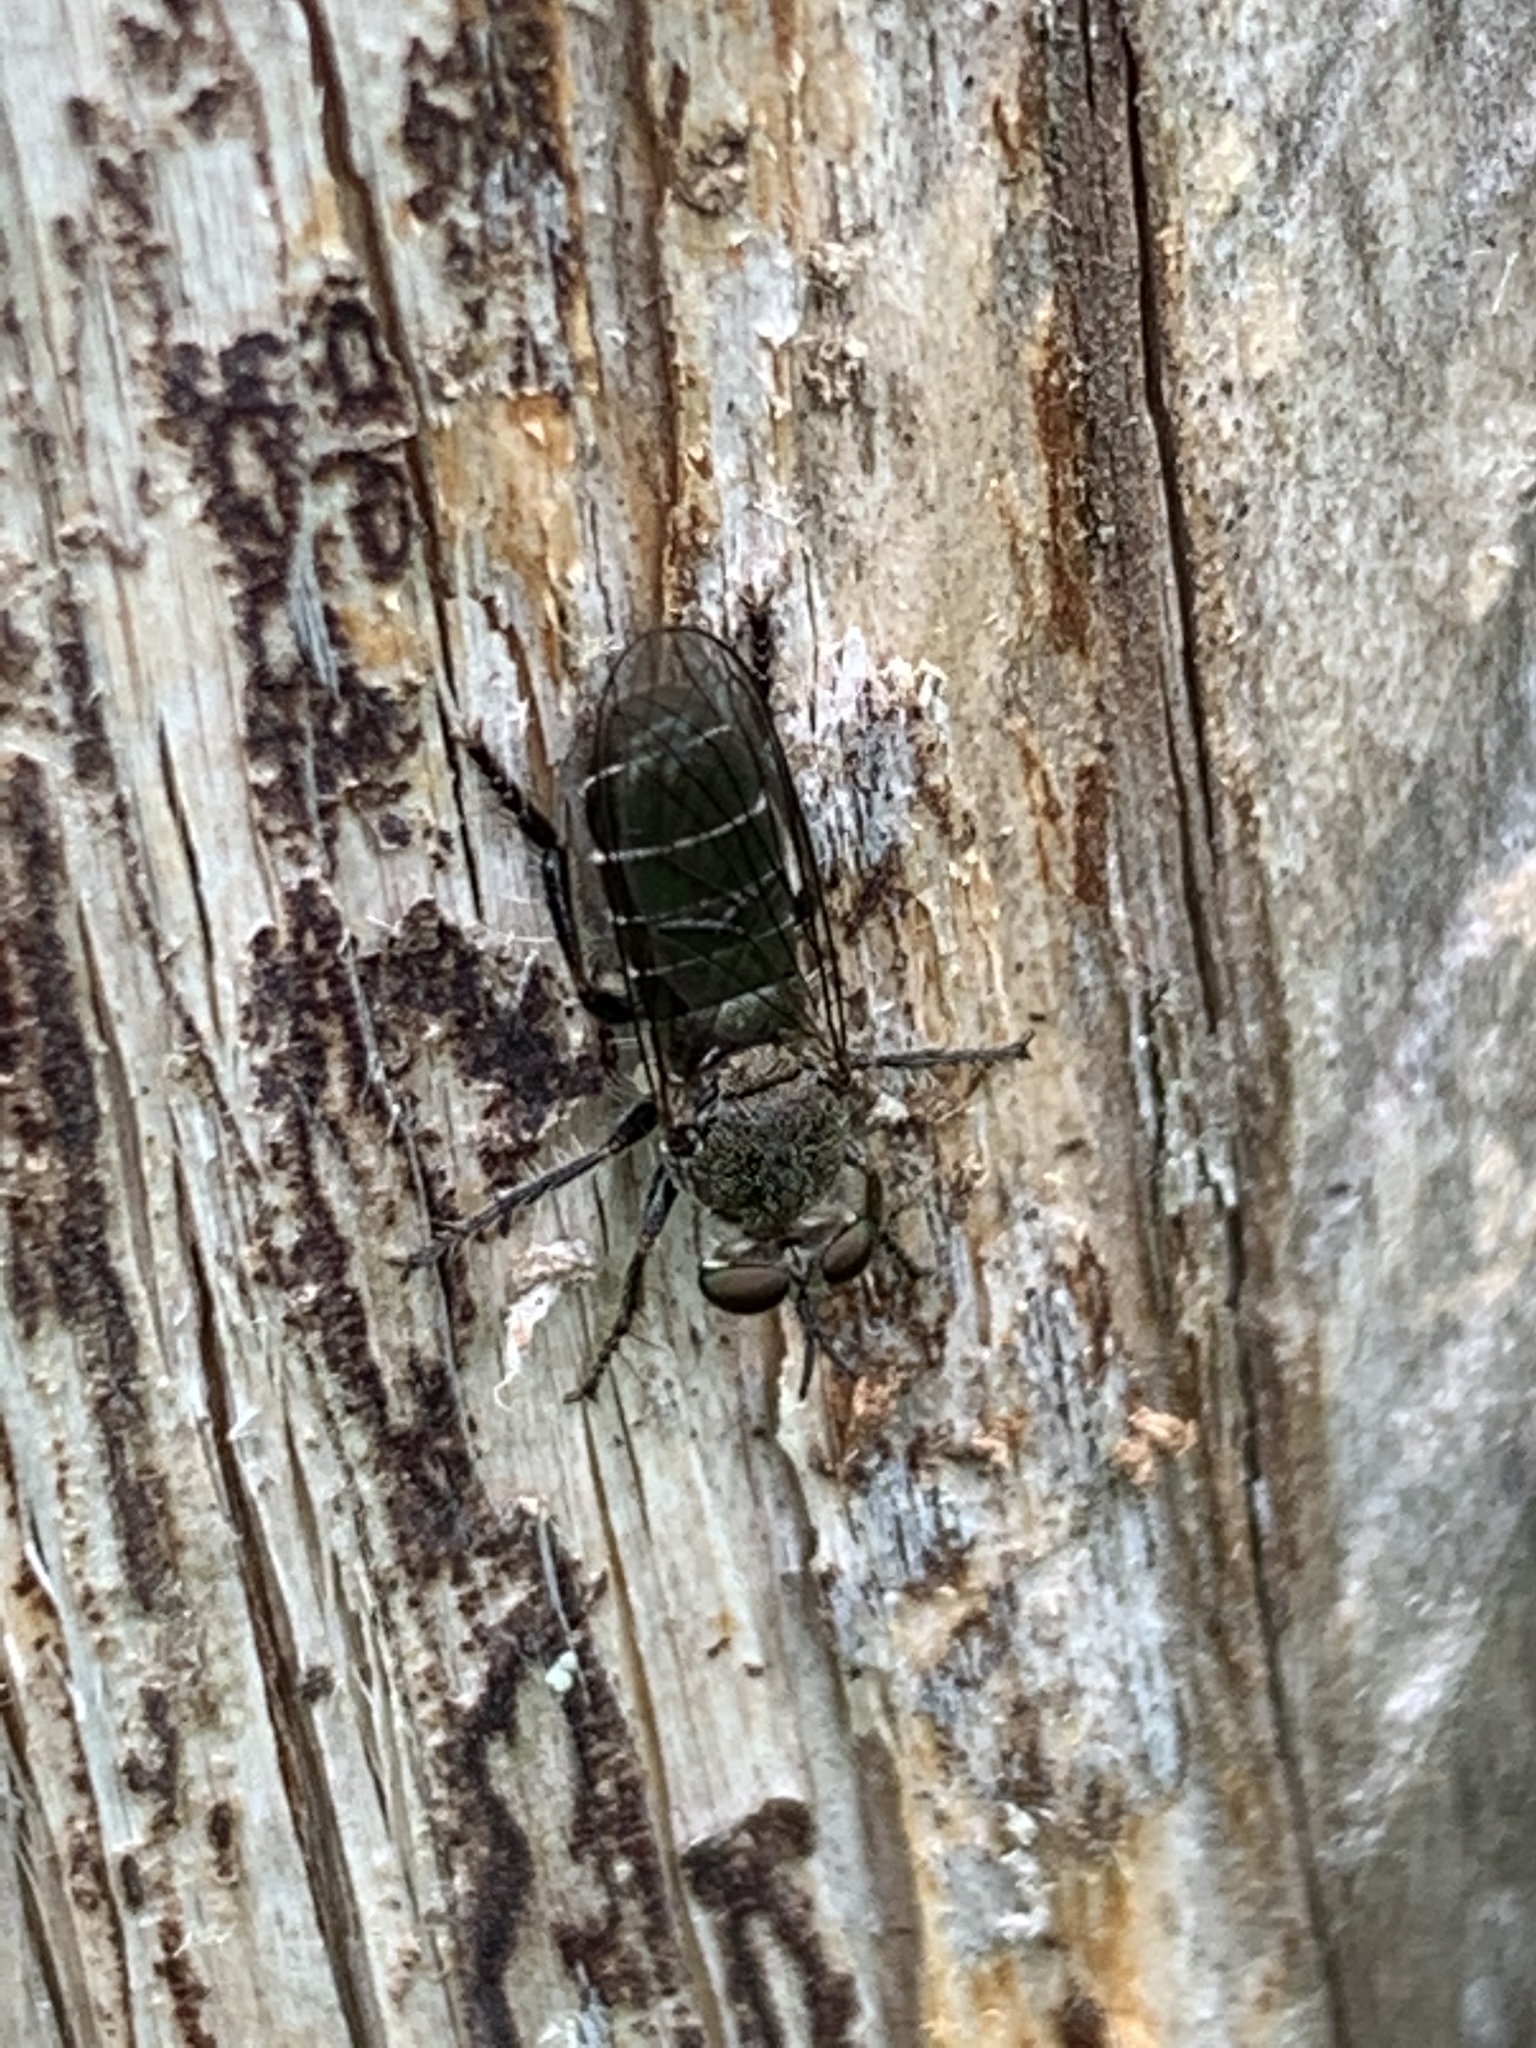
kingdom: Animalia
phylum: Arthropoda
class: Insecta
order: Diptera
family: Asilidae
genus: Atomosia
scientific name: Atomosia puella
